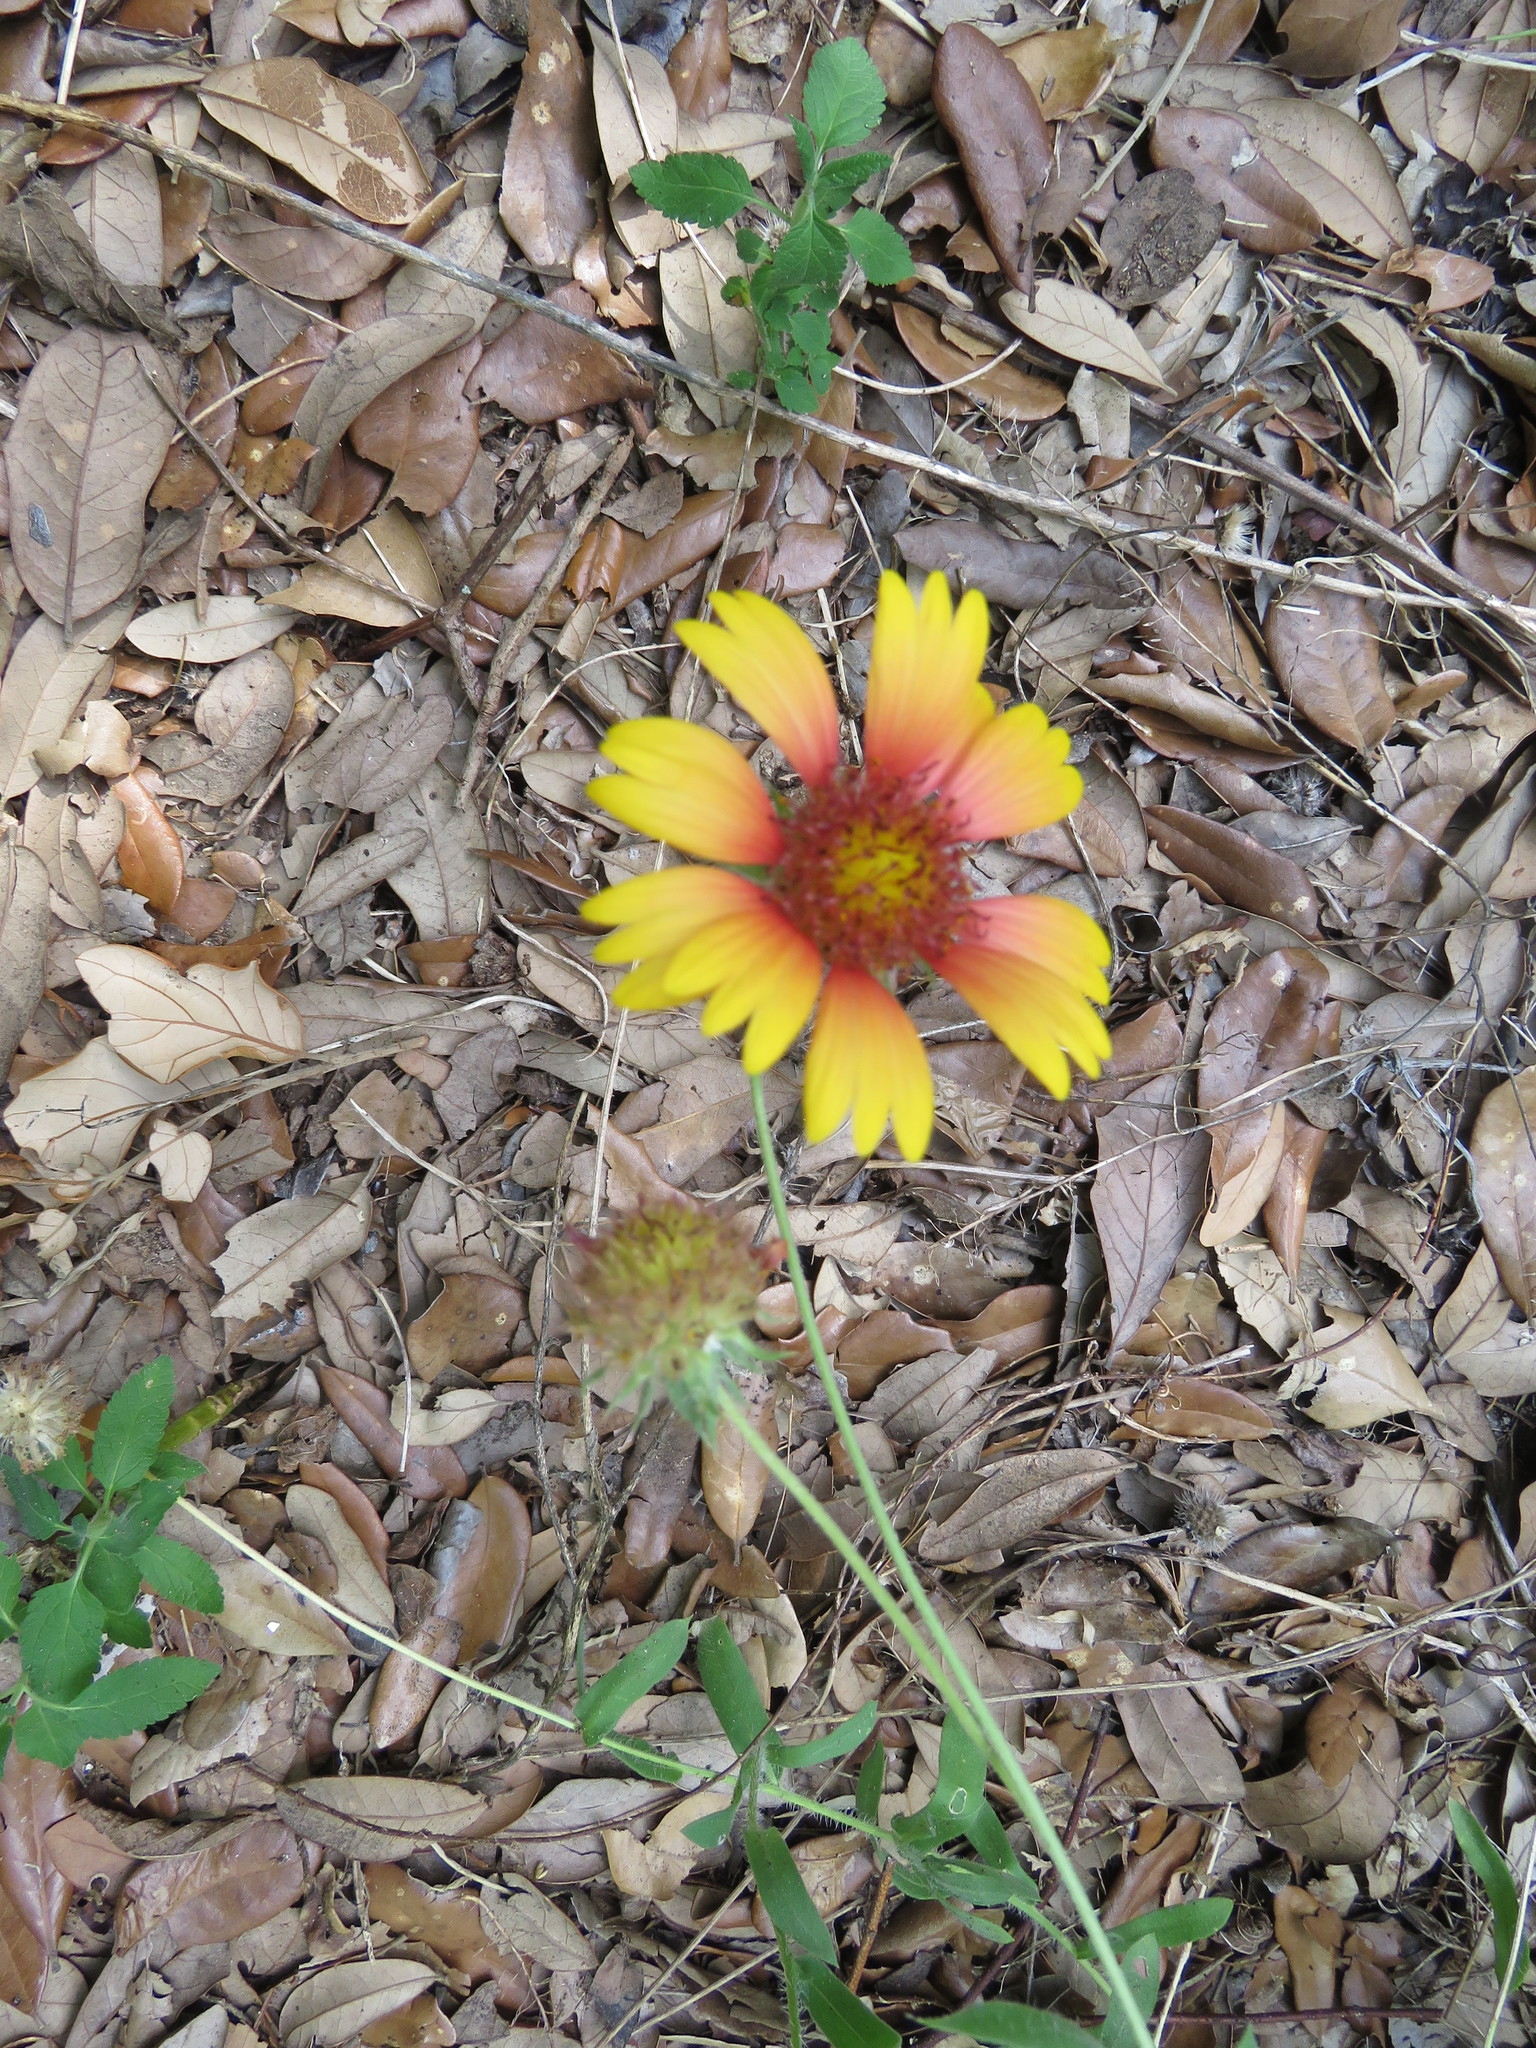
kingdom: Plantae
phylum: Tracheophyta
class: Magnoliopsida
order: Asterales
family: Asteraceae
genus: Gaillardia
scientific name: Gaillardia pulchella
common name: Firewheel
